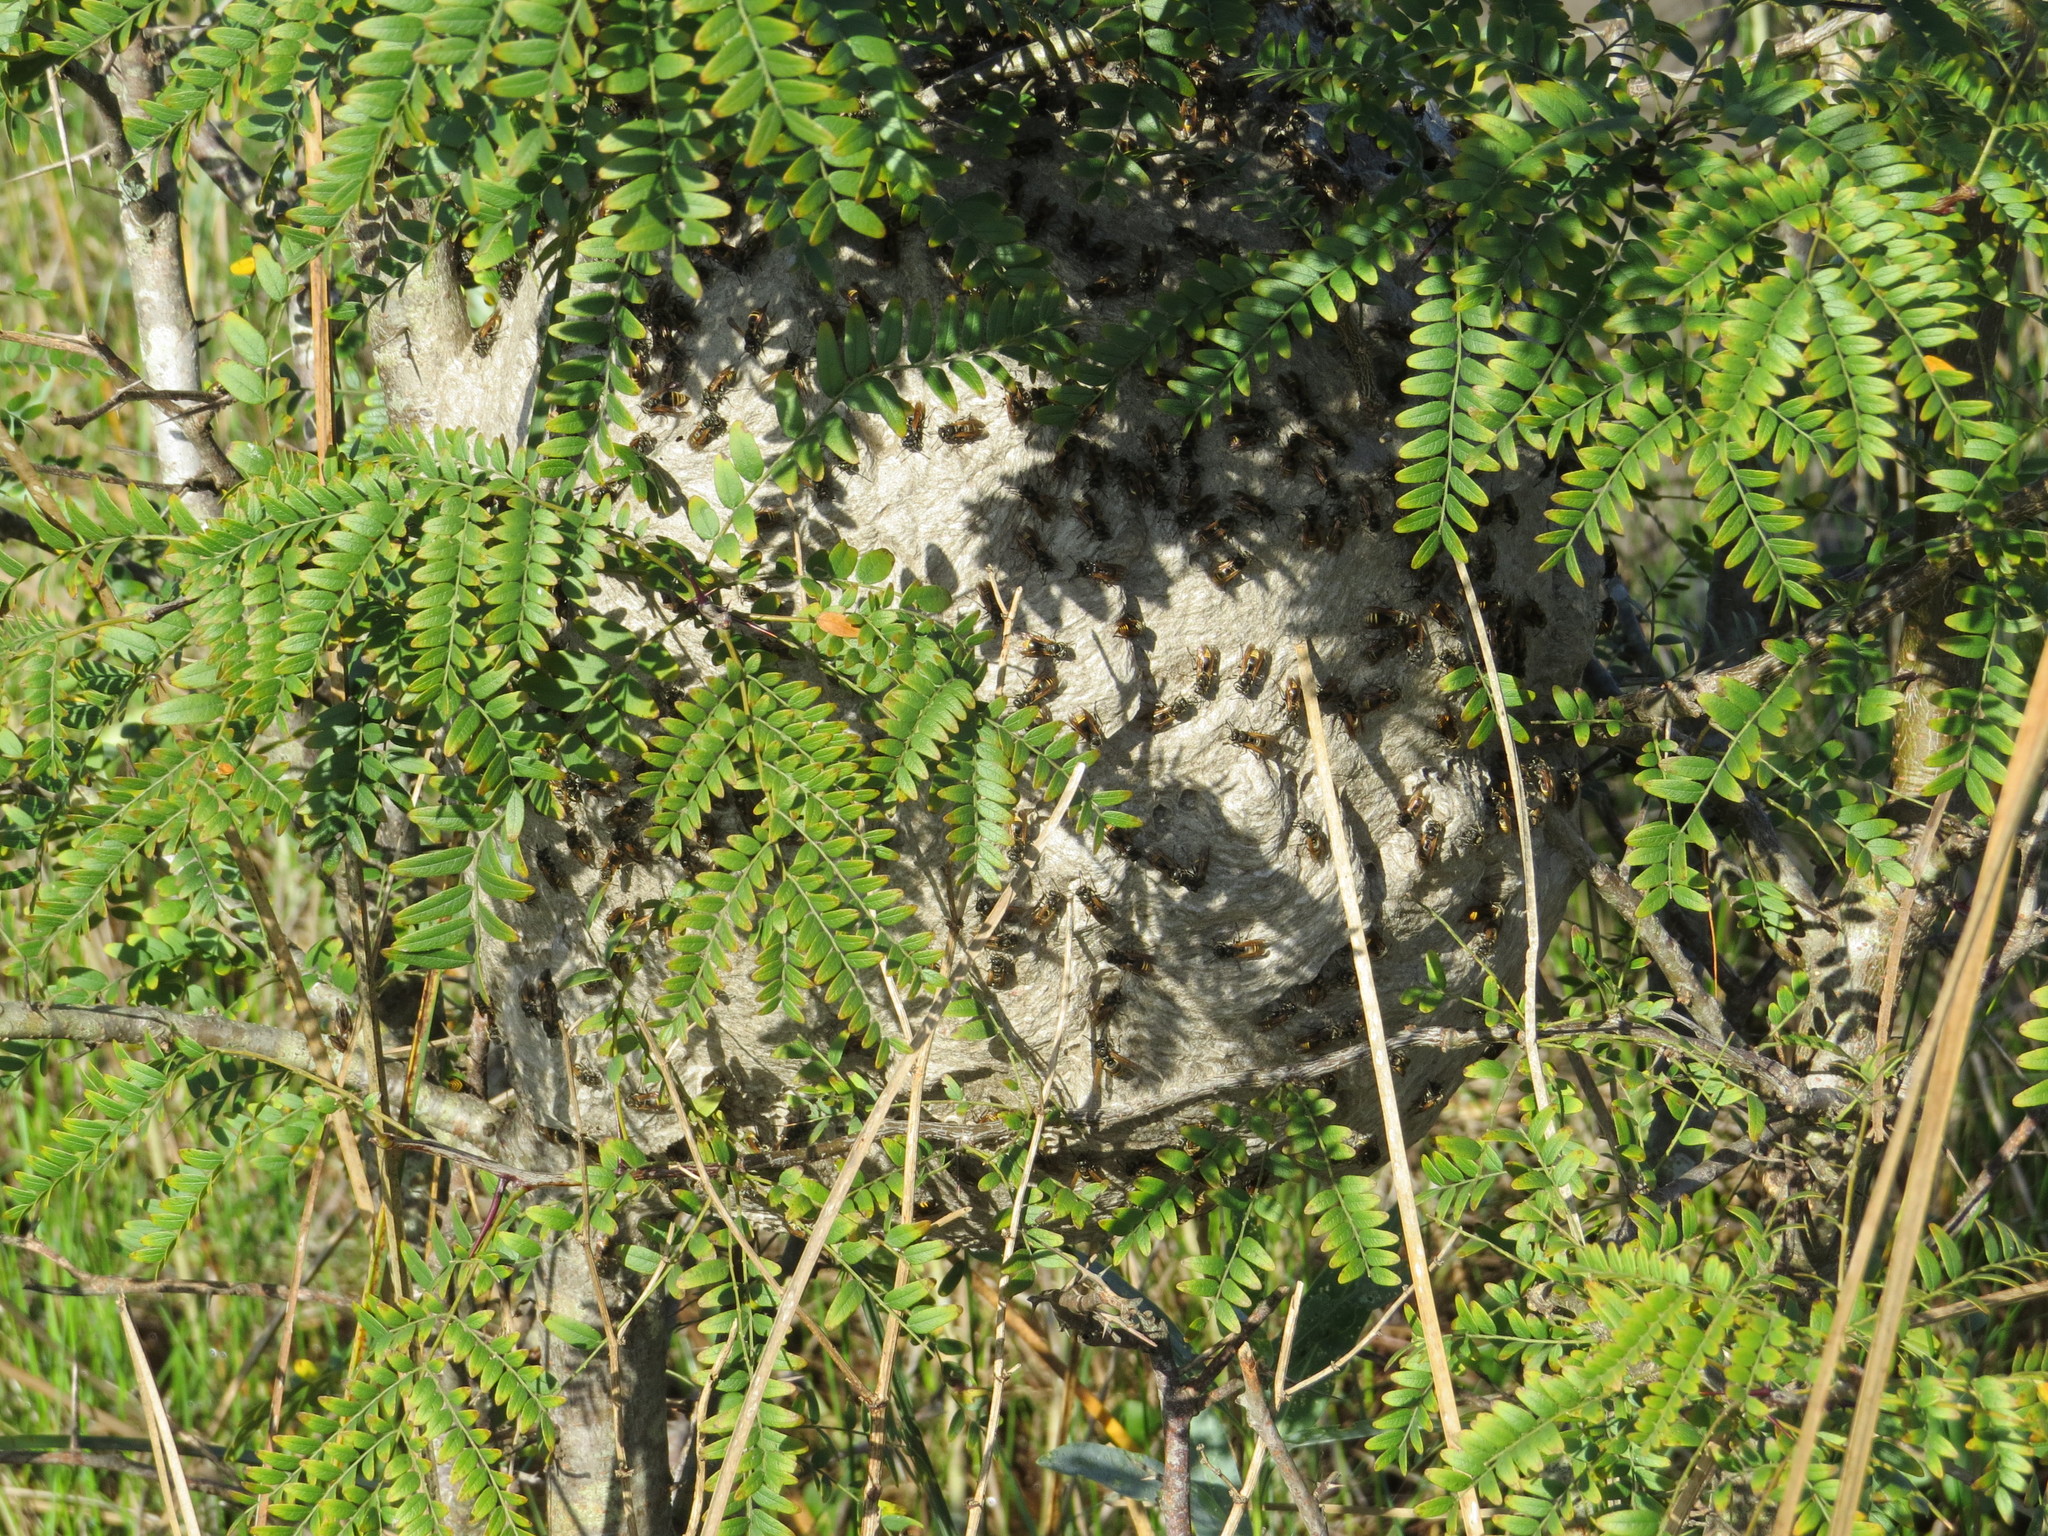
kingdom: Animalia
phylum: Arthropoda
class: Insecta
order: Hymenoptera
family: Vespidae
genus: Brachygastra
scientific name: Brachygastra lecheguana
